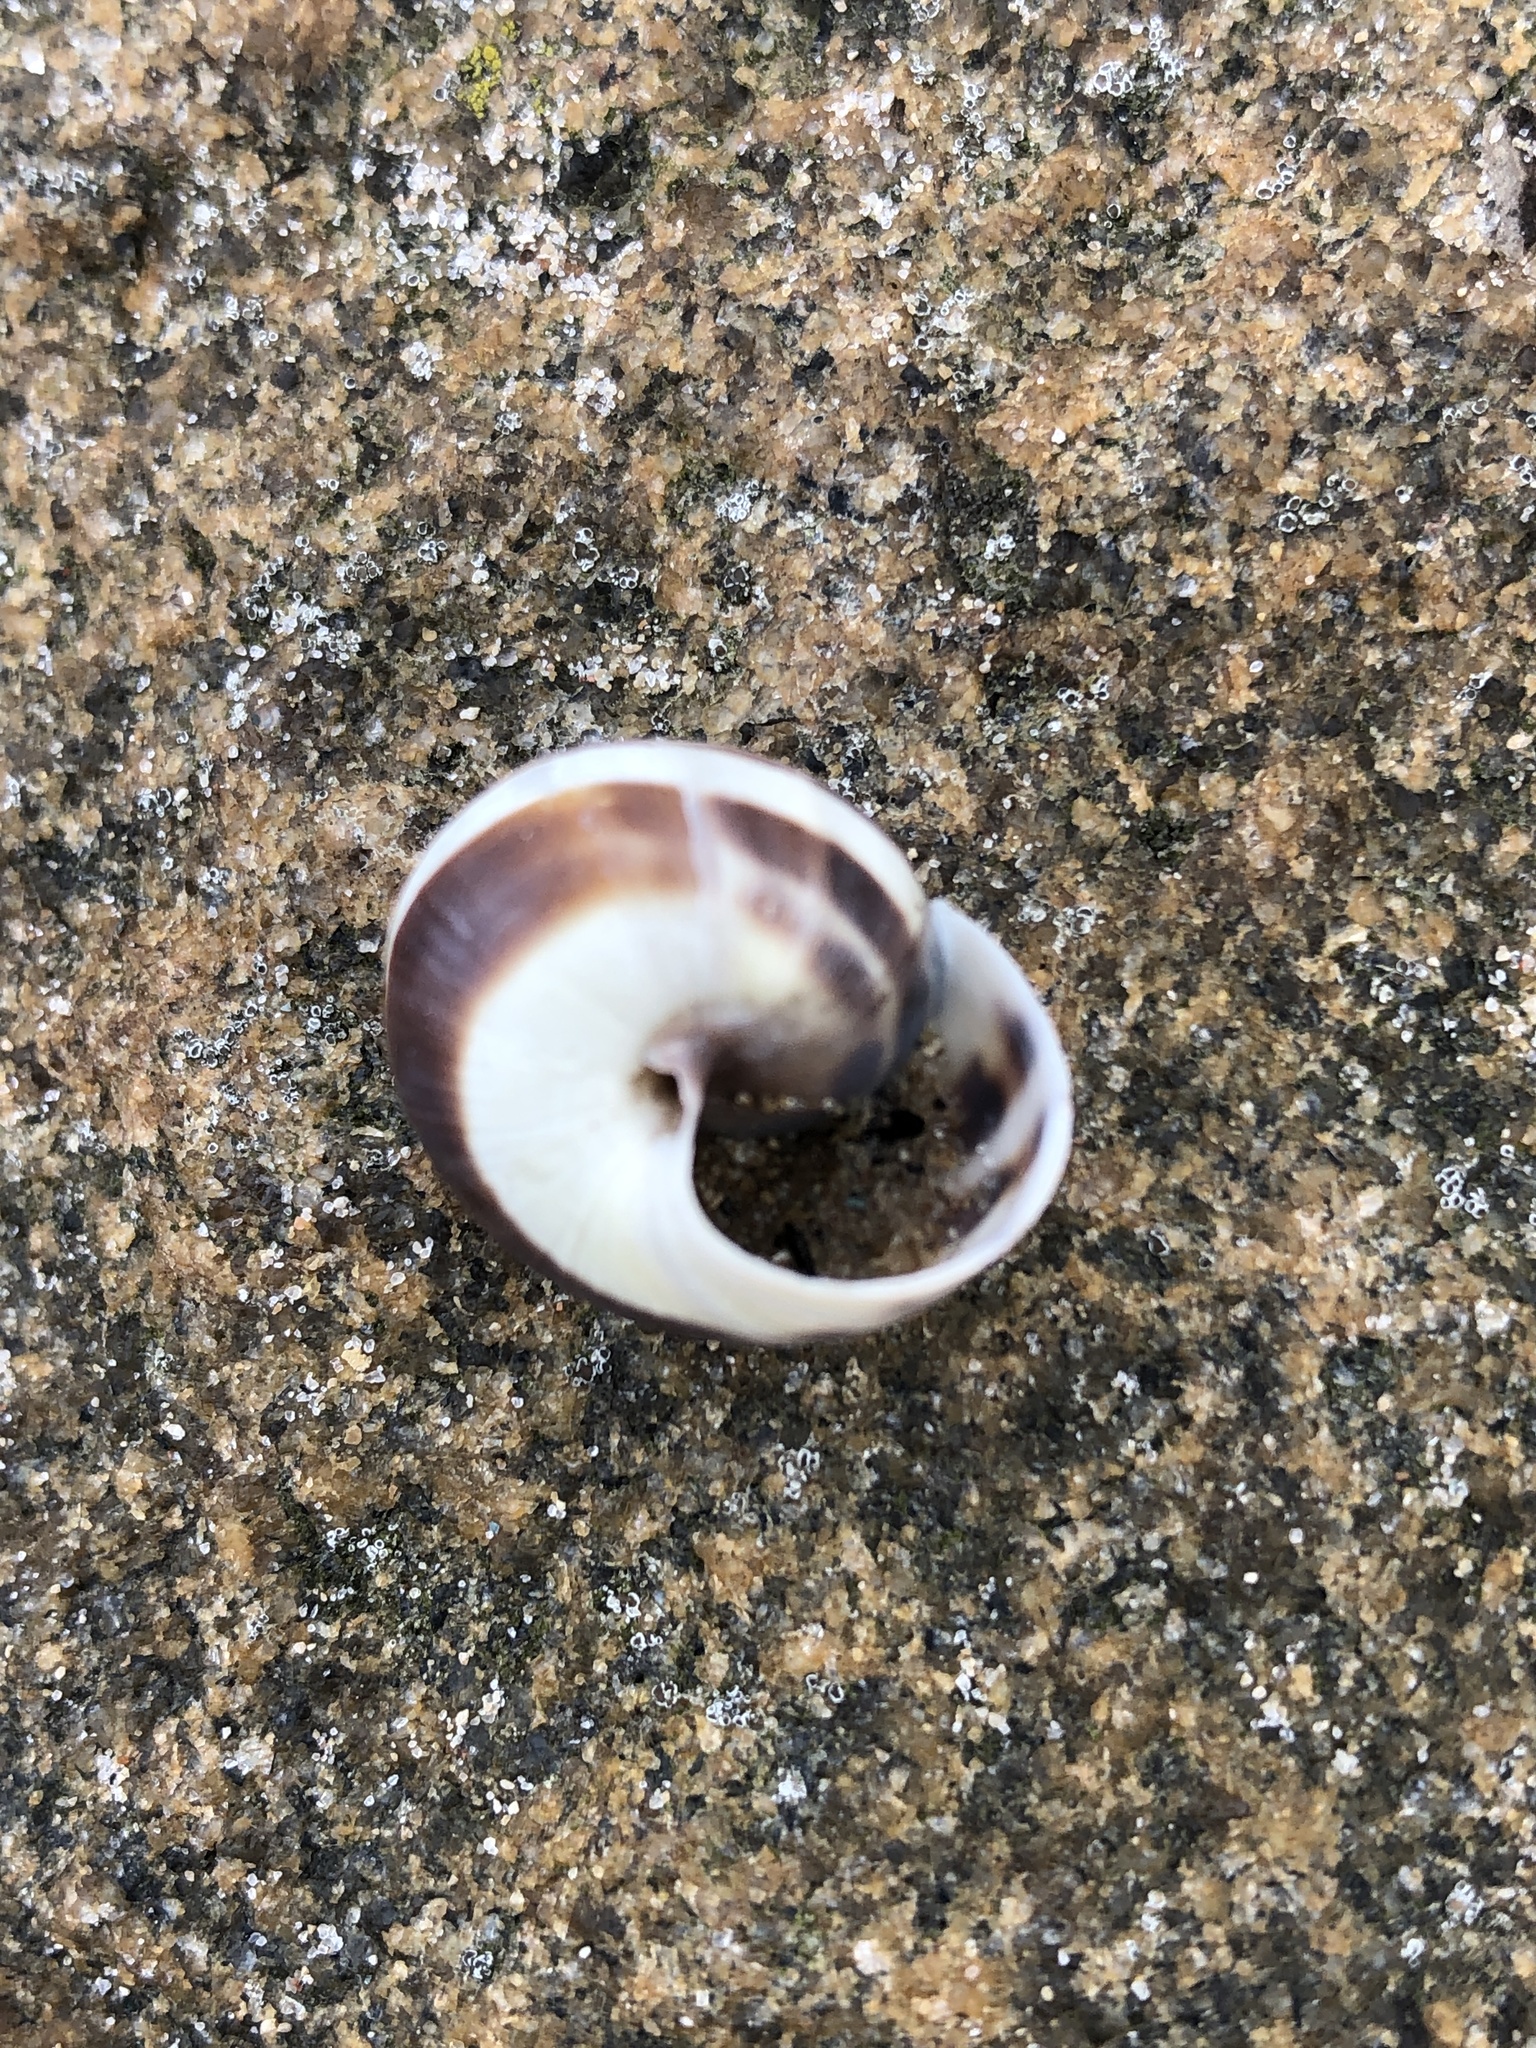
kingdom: Animalia
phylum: Mollusca
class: Gastropoda
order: Stylommatophora
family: Helicidae
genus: Cepaea
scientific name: Cepaea
